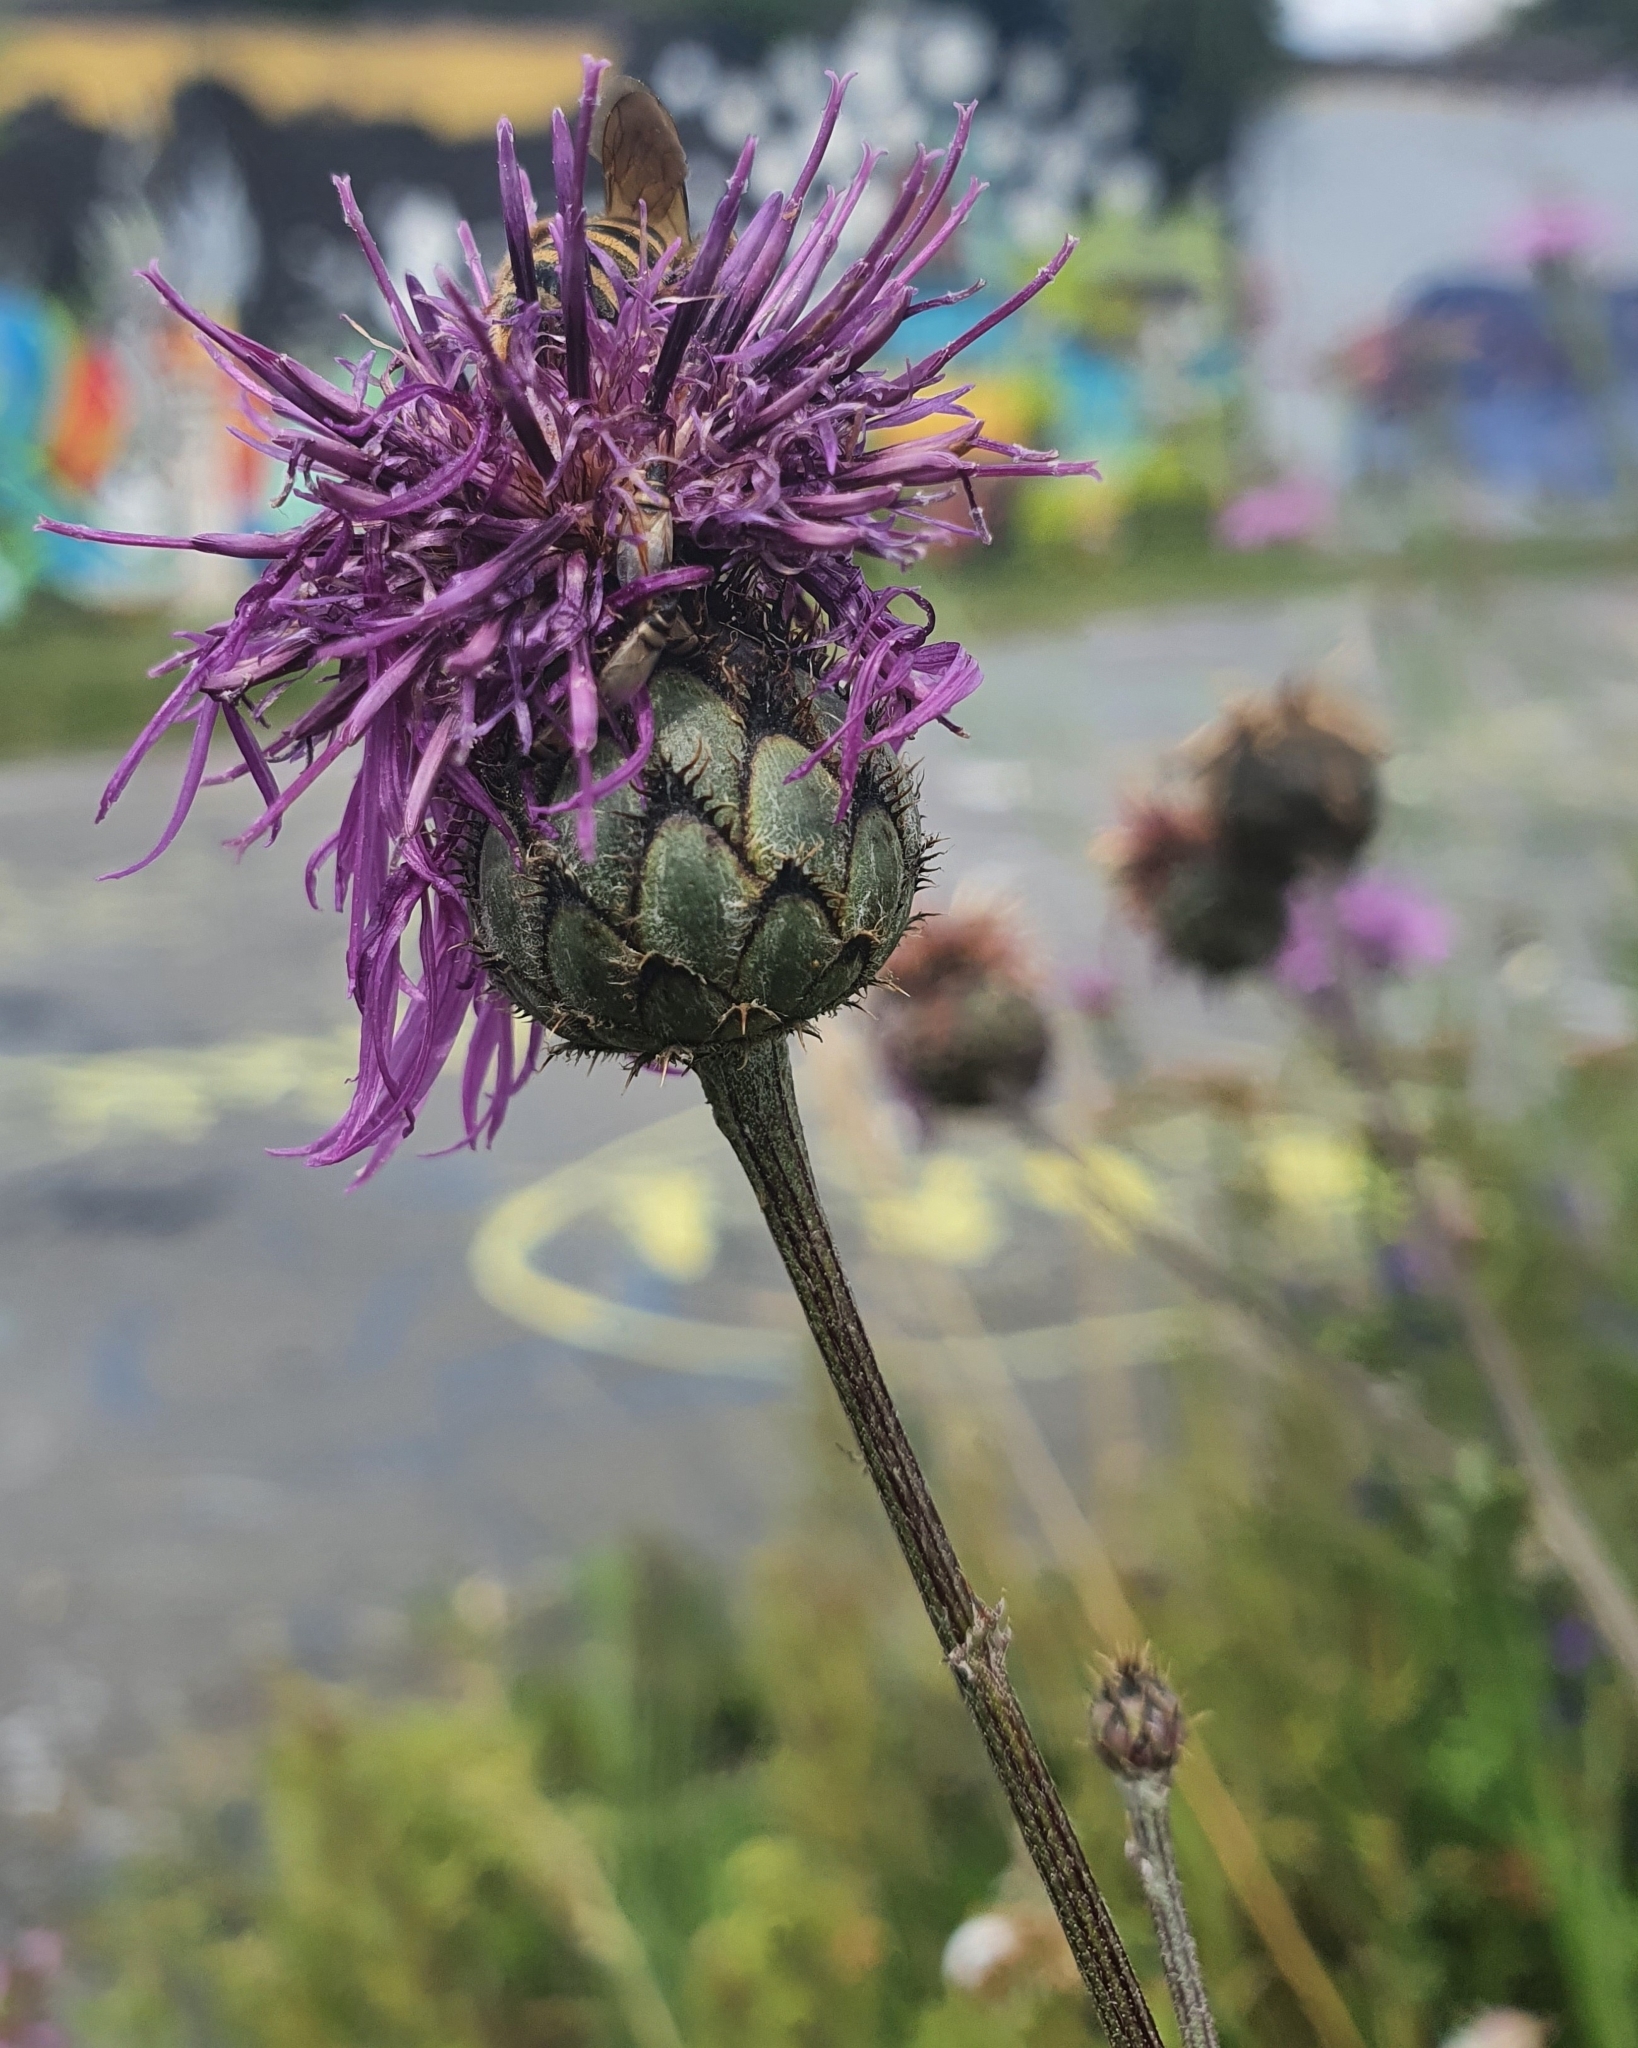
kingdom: Plantae
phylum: Tracheophyta
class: Magnoliopsida
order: Asterales
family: Asteraceae
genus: Centaurea
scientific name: Centaurea scabiosa
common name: Greater knapweed
